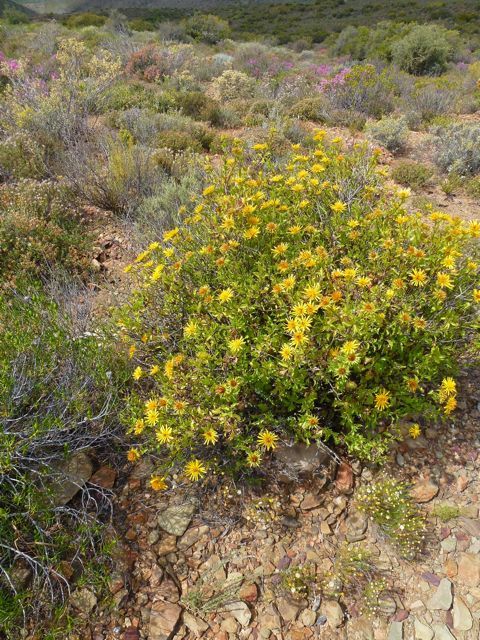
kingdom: Plantae
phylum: Tracheophyta
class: Magnoliopsida
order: Asterales
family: Asteraceae
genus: Berkheya
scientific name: Berkheya spinosa
